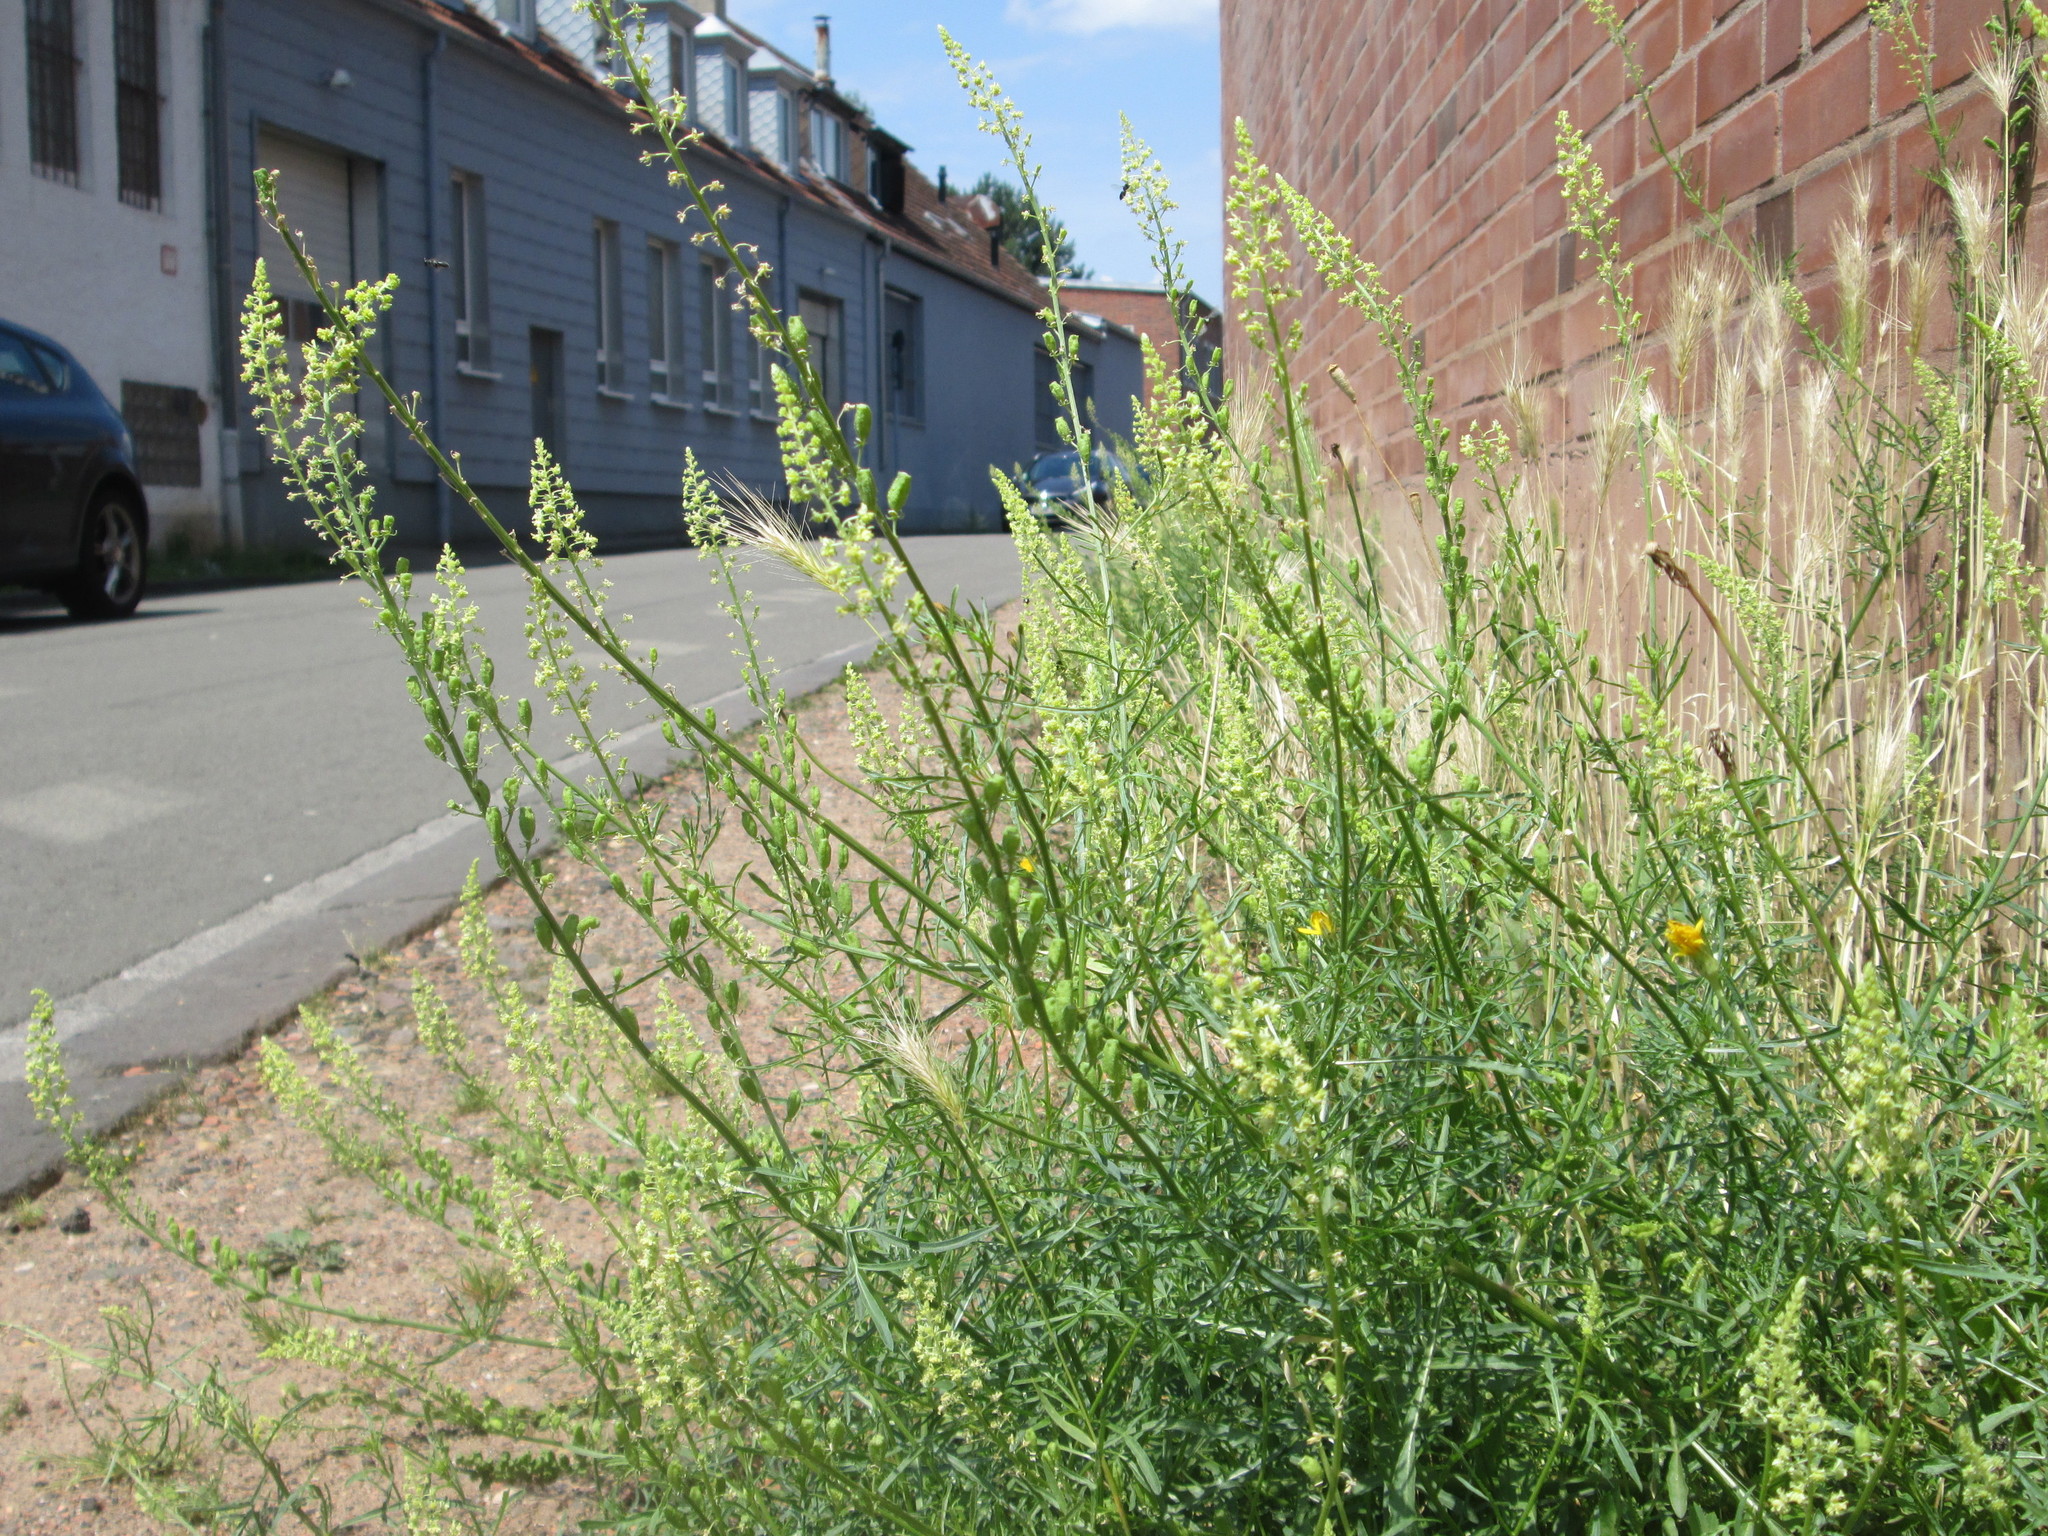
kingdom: Plantae
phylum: Tracheophyta
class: Magnoliopsida
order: Brassicales
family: Resedaceae
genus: Reseda
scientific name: Reseda lutea
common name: Wild mignonette
